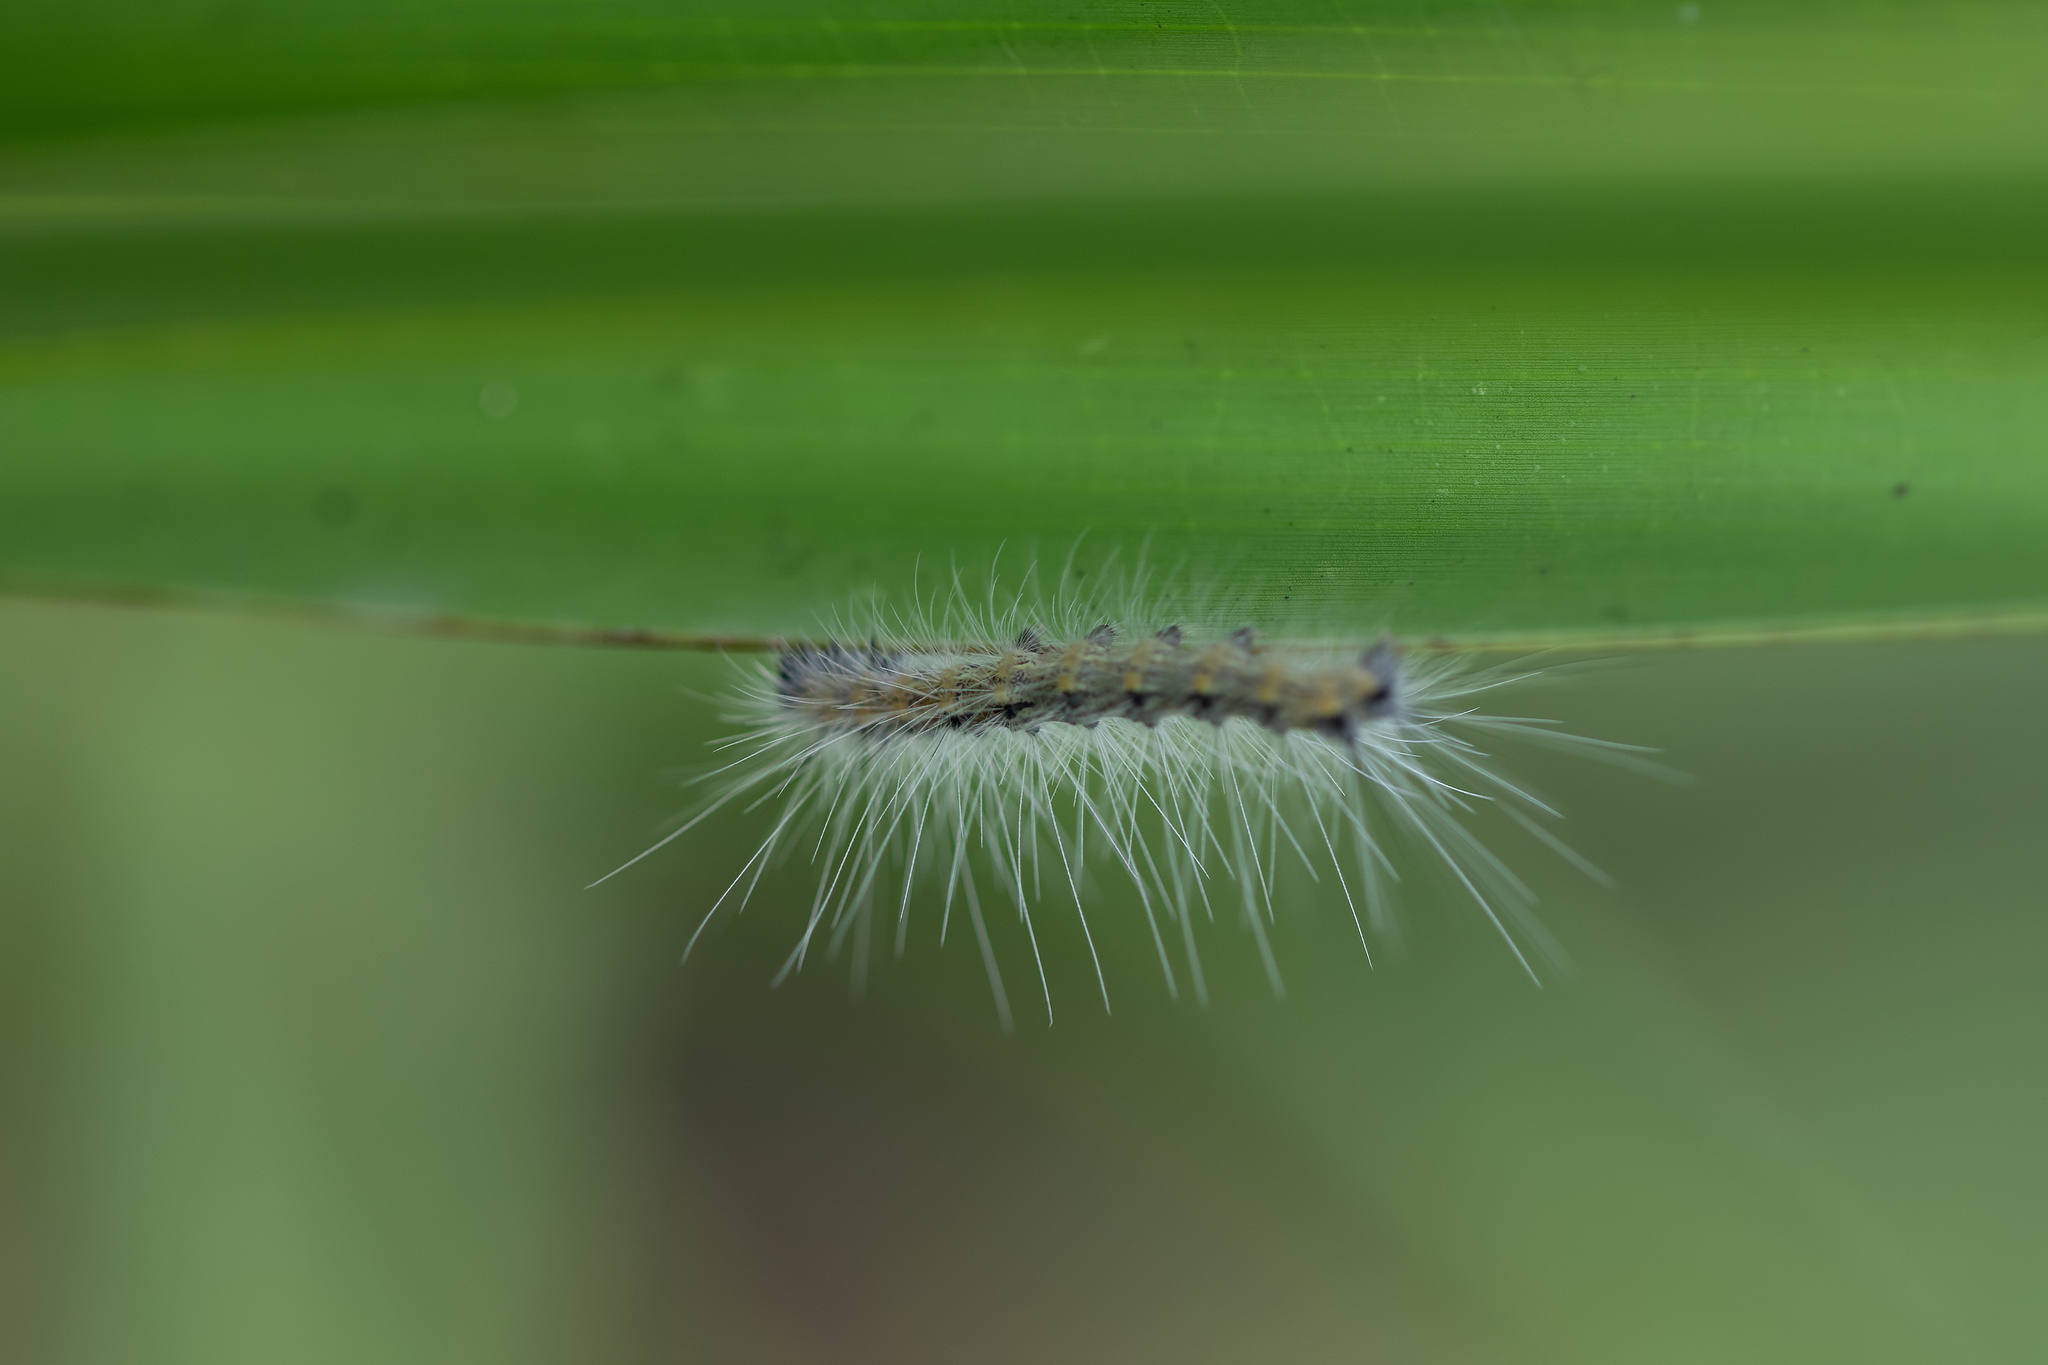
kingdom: Animalia
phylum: Arthropoda
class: Insecta
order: Lepidoptera
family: Erebidae
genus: Hyphantria
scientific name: Hyphantria cunea
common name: American white moth
